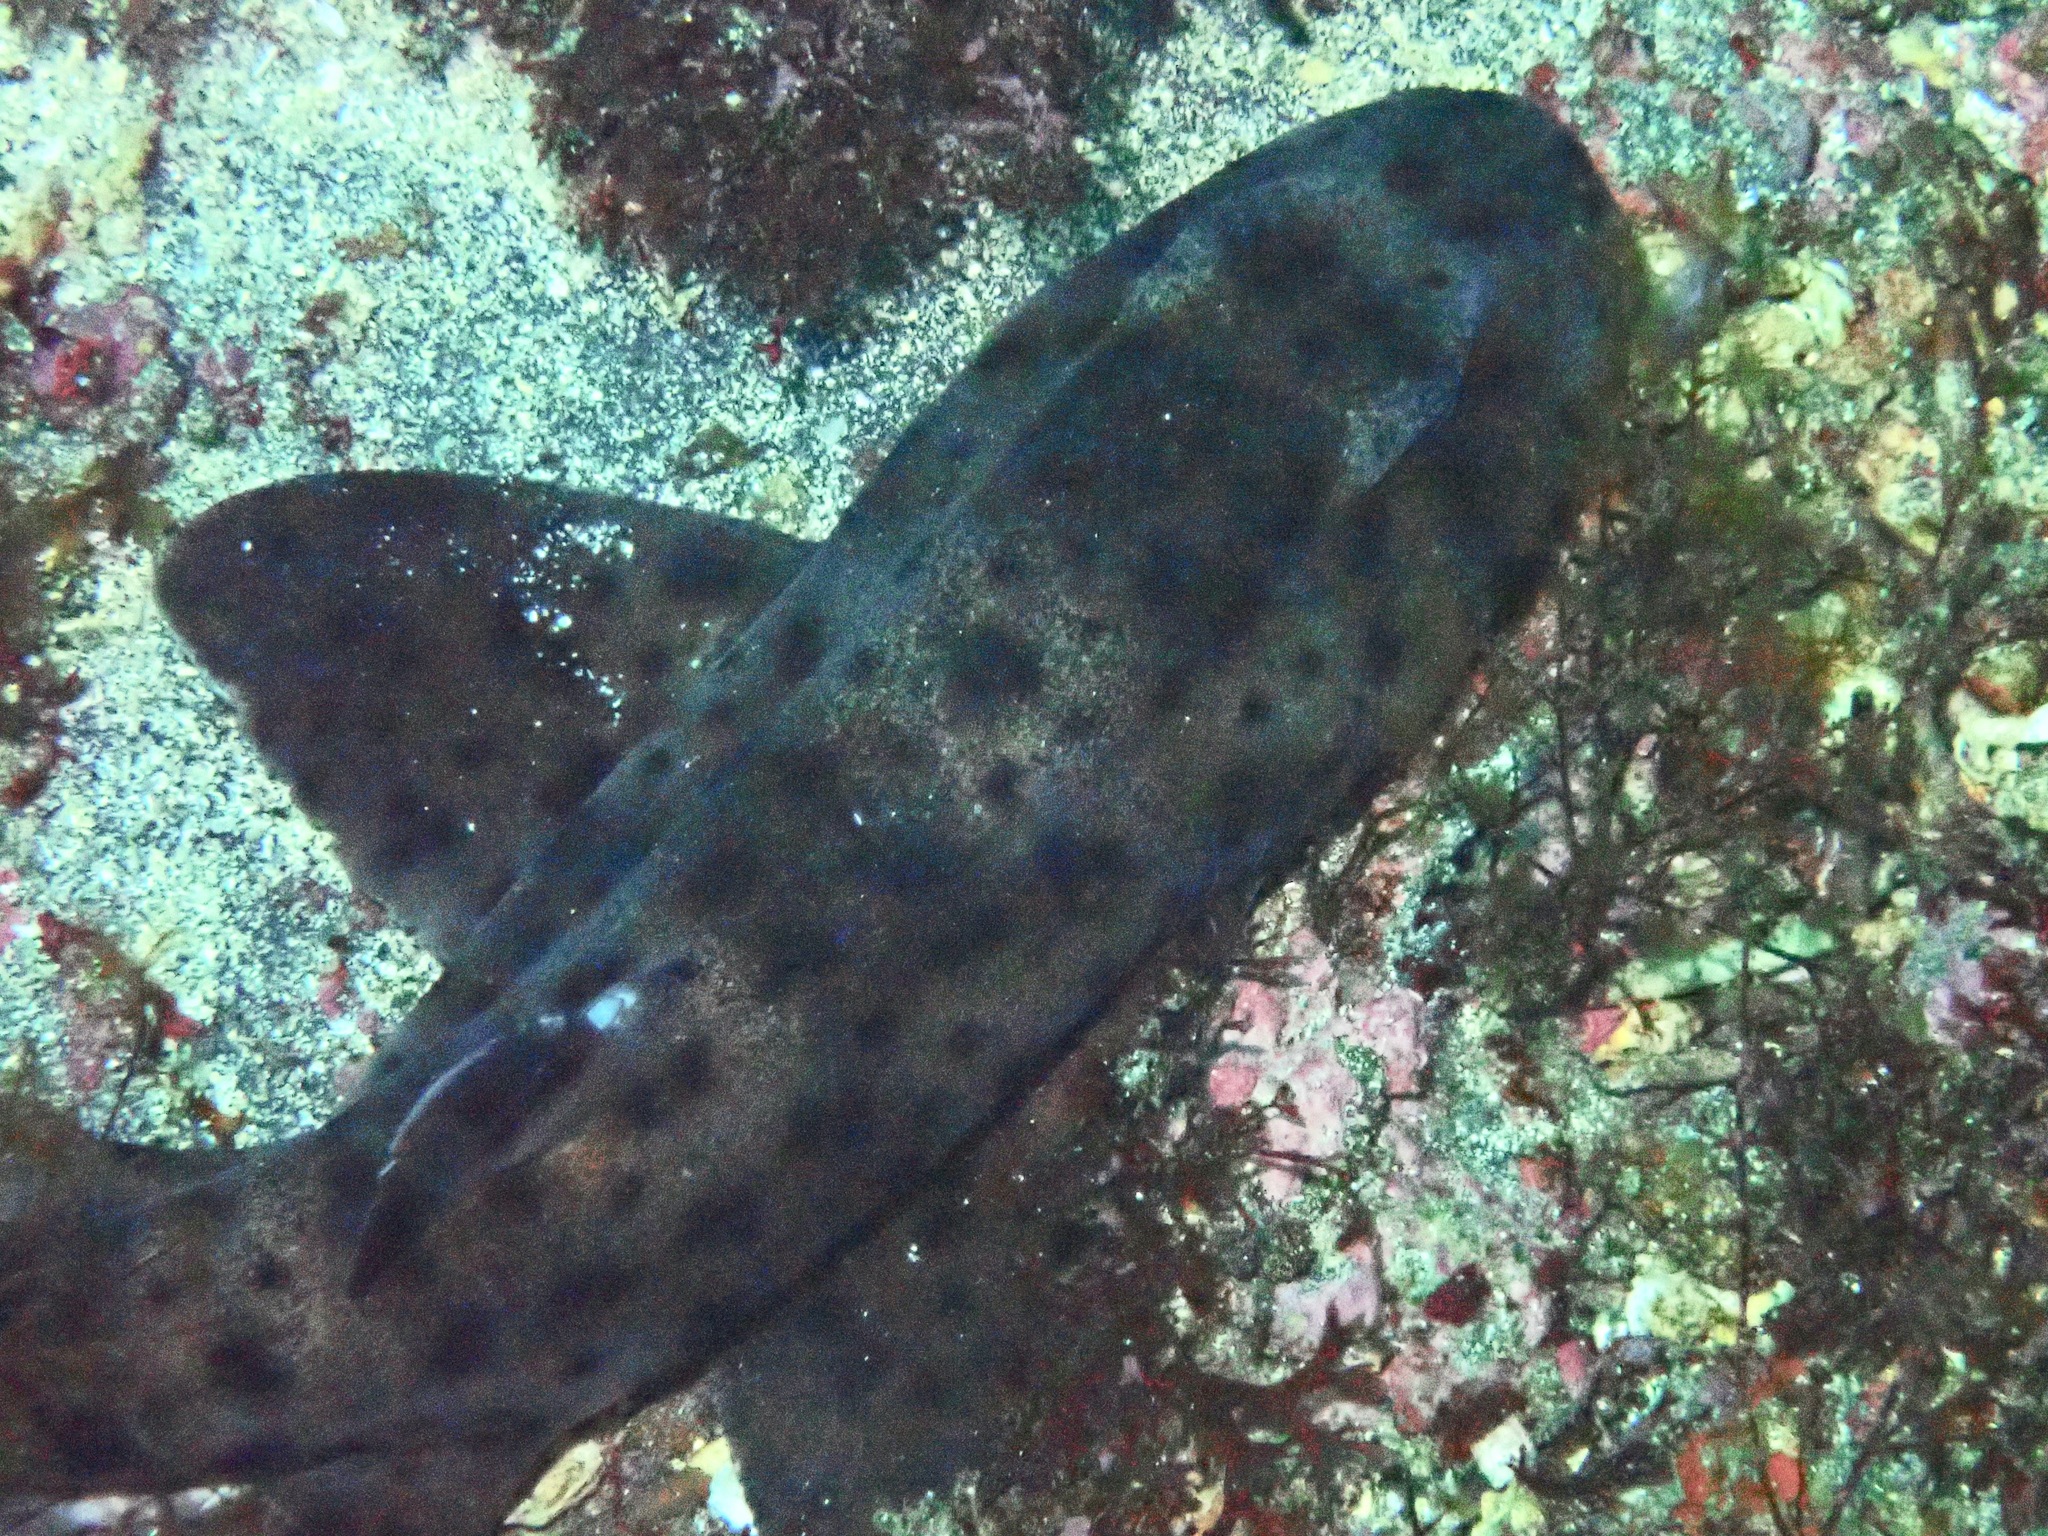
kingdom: Animalia
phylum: Chordata
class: Elasmobranchii
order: Heterodontiformes
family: Heterodontidae
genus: Heterodontus
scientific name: Heterodontus quoyi
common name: Galapagos bullhead shark
